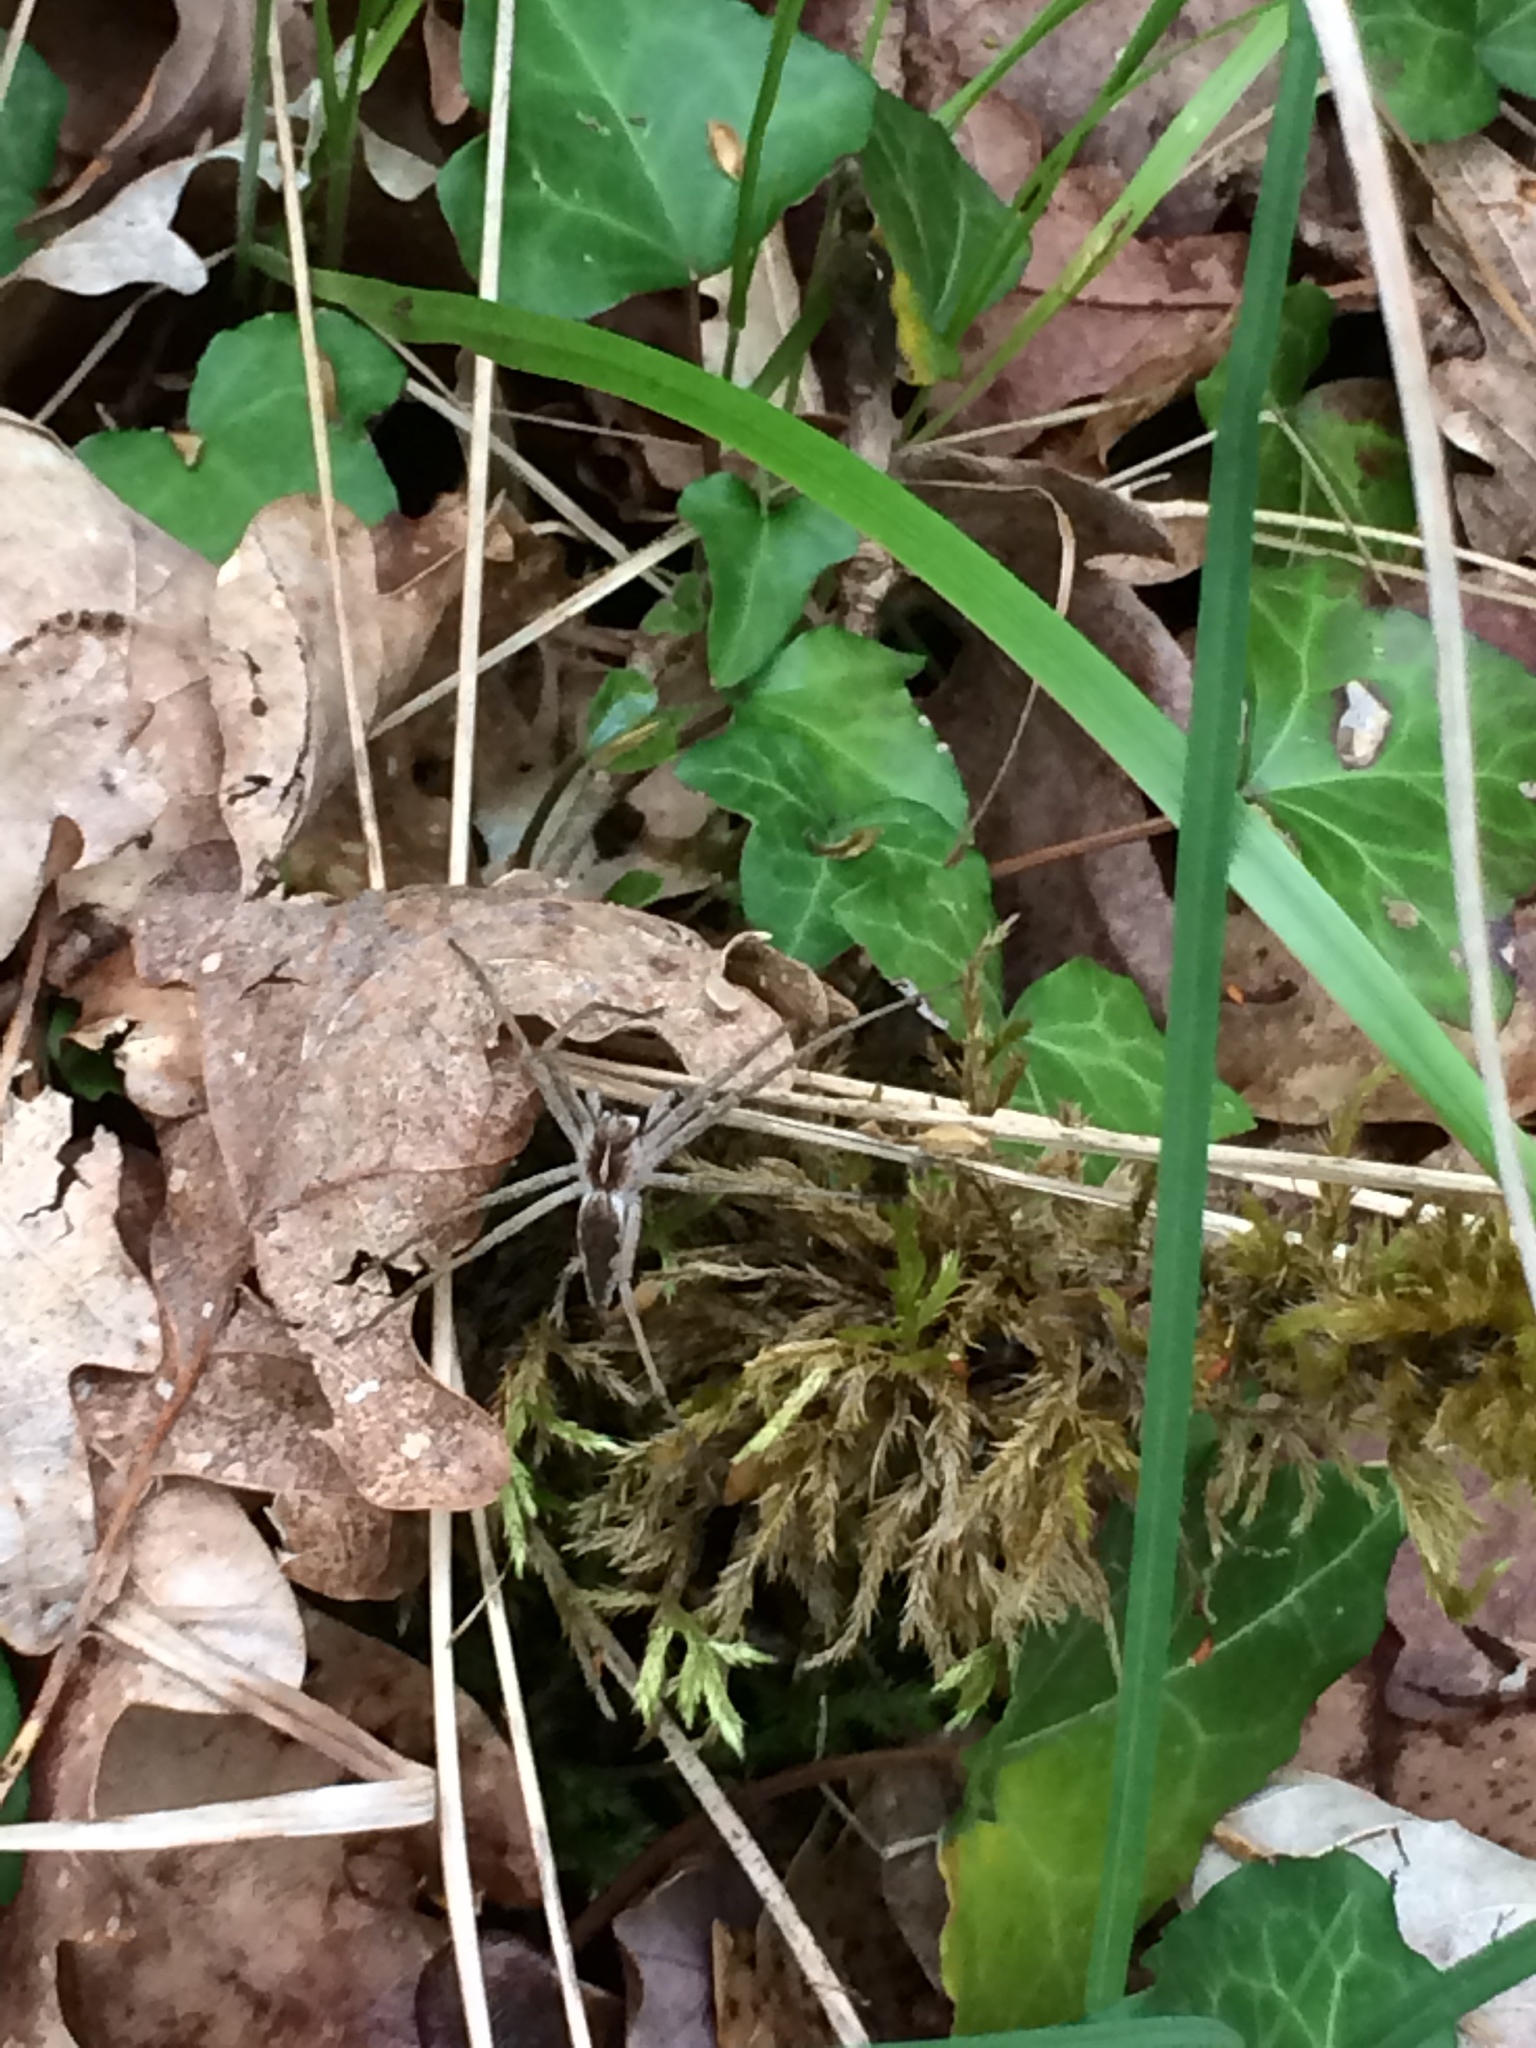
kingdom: Animalia
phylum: Arthropoda
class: Arachnida
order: Araneae
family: Pisauridae
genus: Pisaura
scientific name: Pisaura mirabilis
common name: Tent spider
